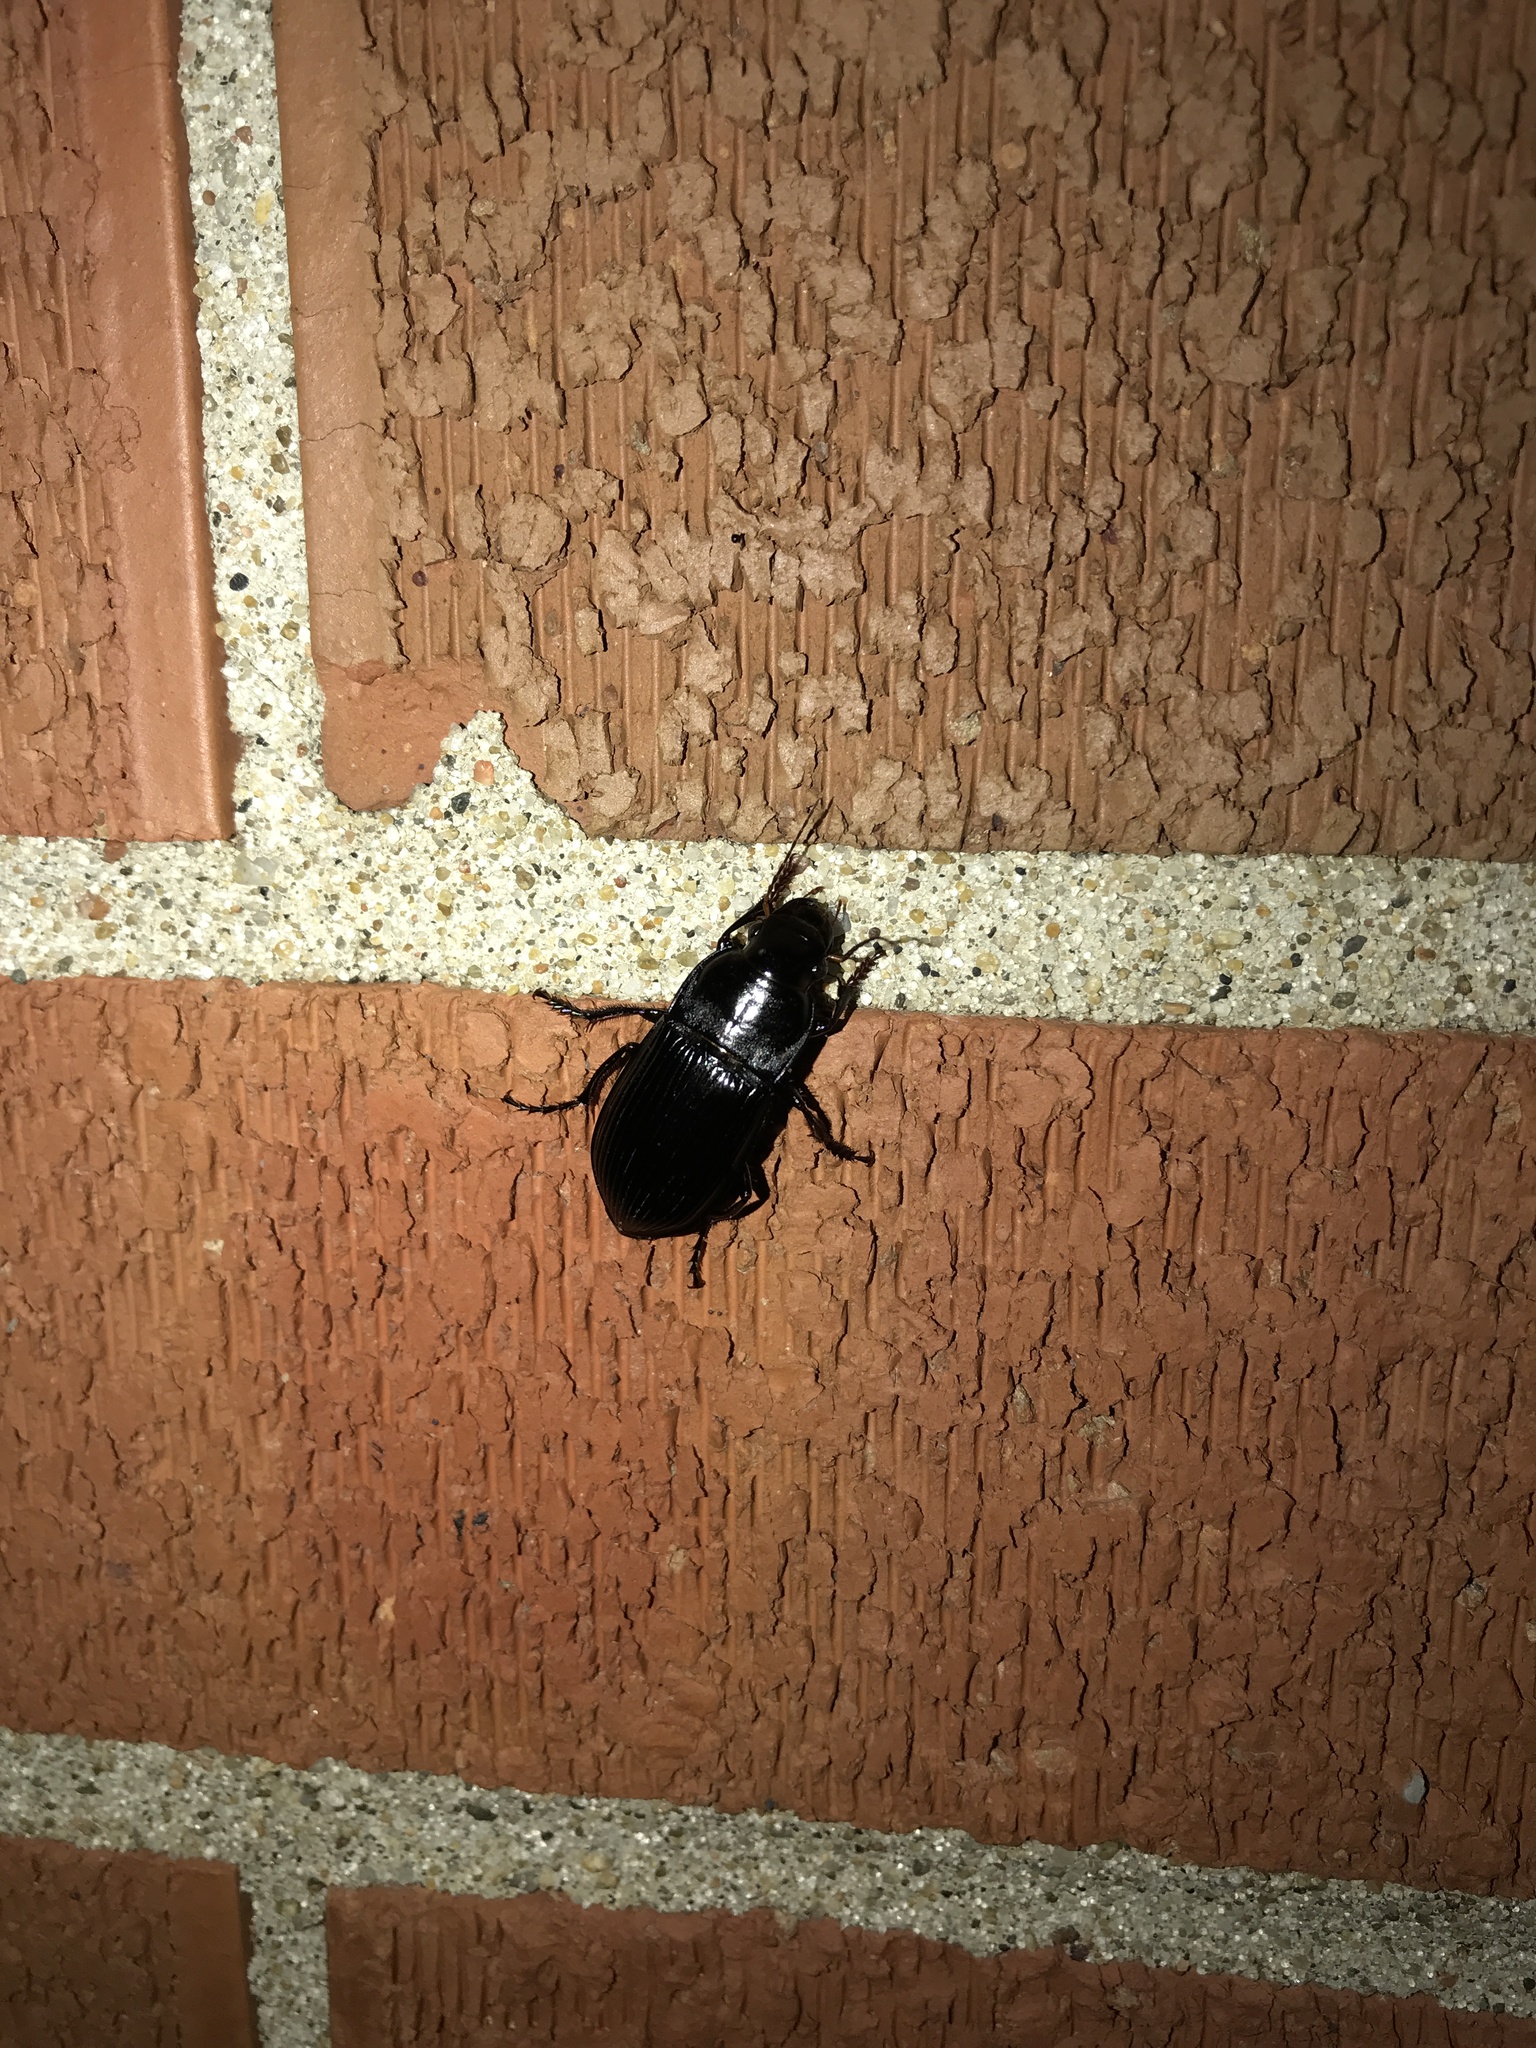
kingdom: Animalia
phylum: Arthropoda
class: Insecta
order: Coleoptera
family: Carabidae
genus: Harpalus
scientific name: Harpalus caliginosus
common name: Murky ground beetle
